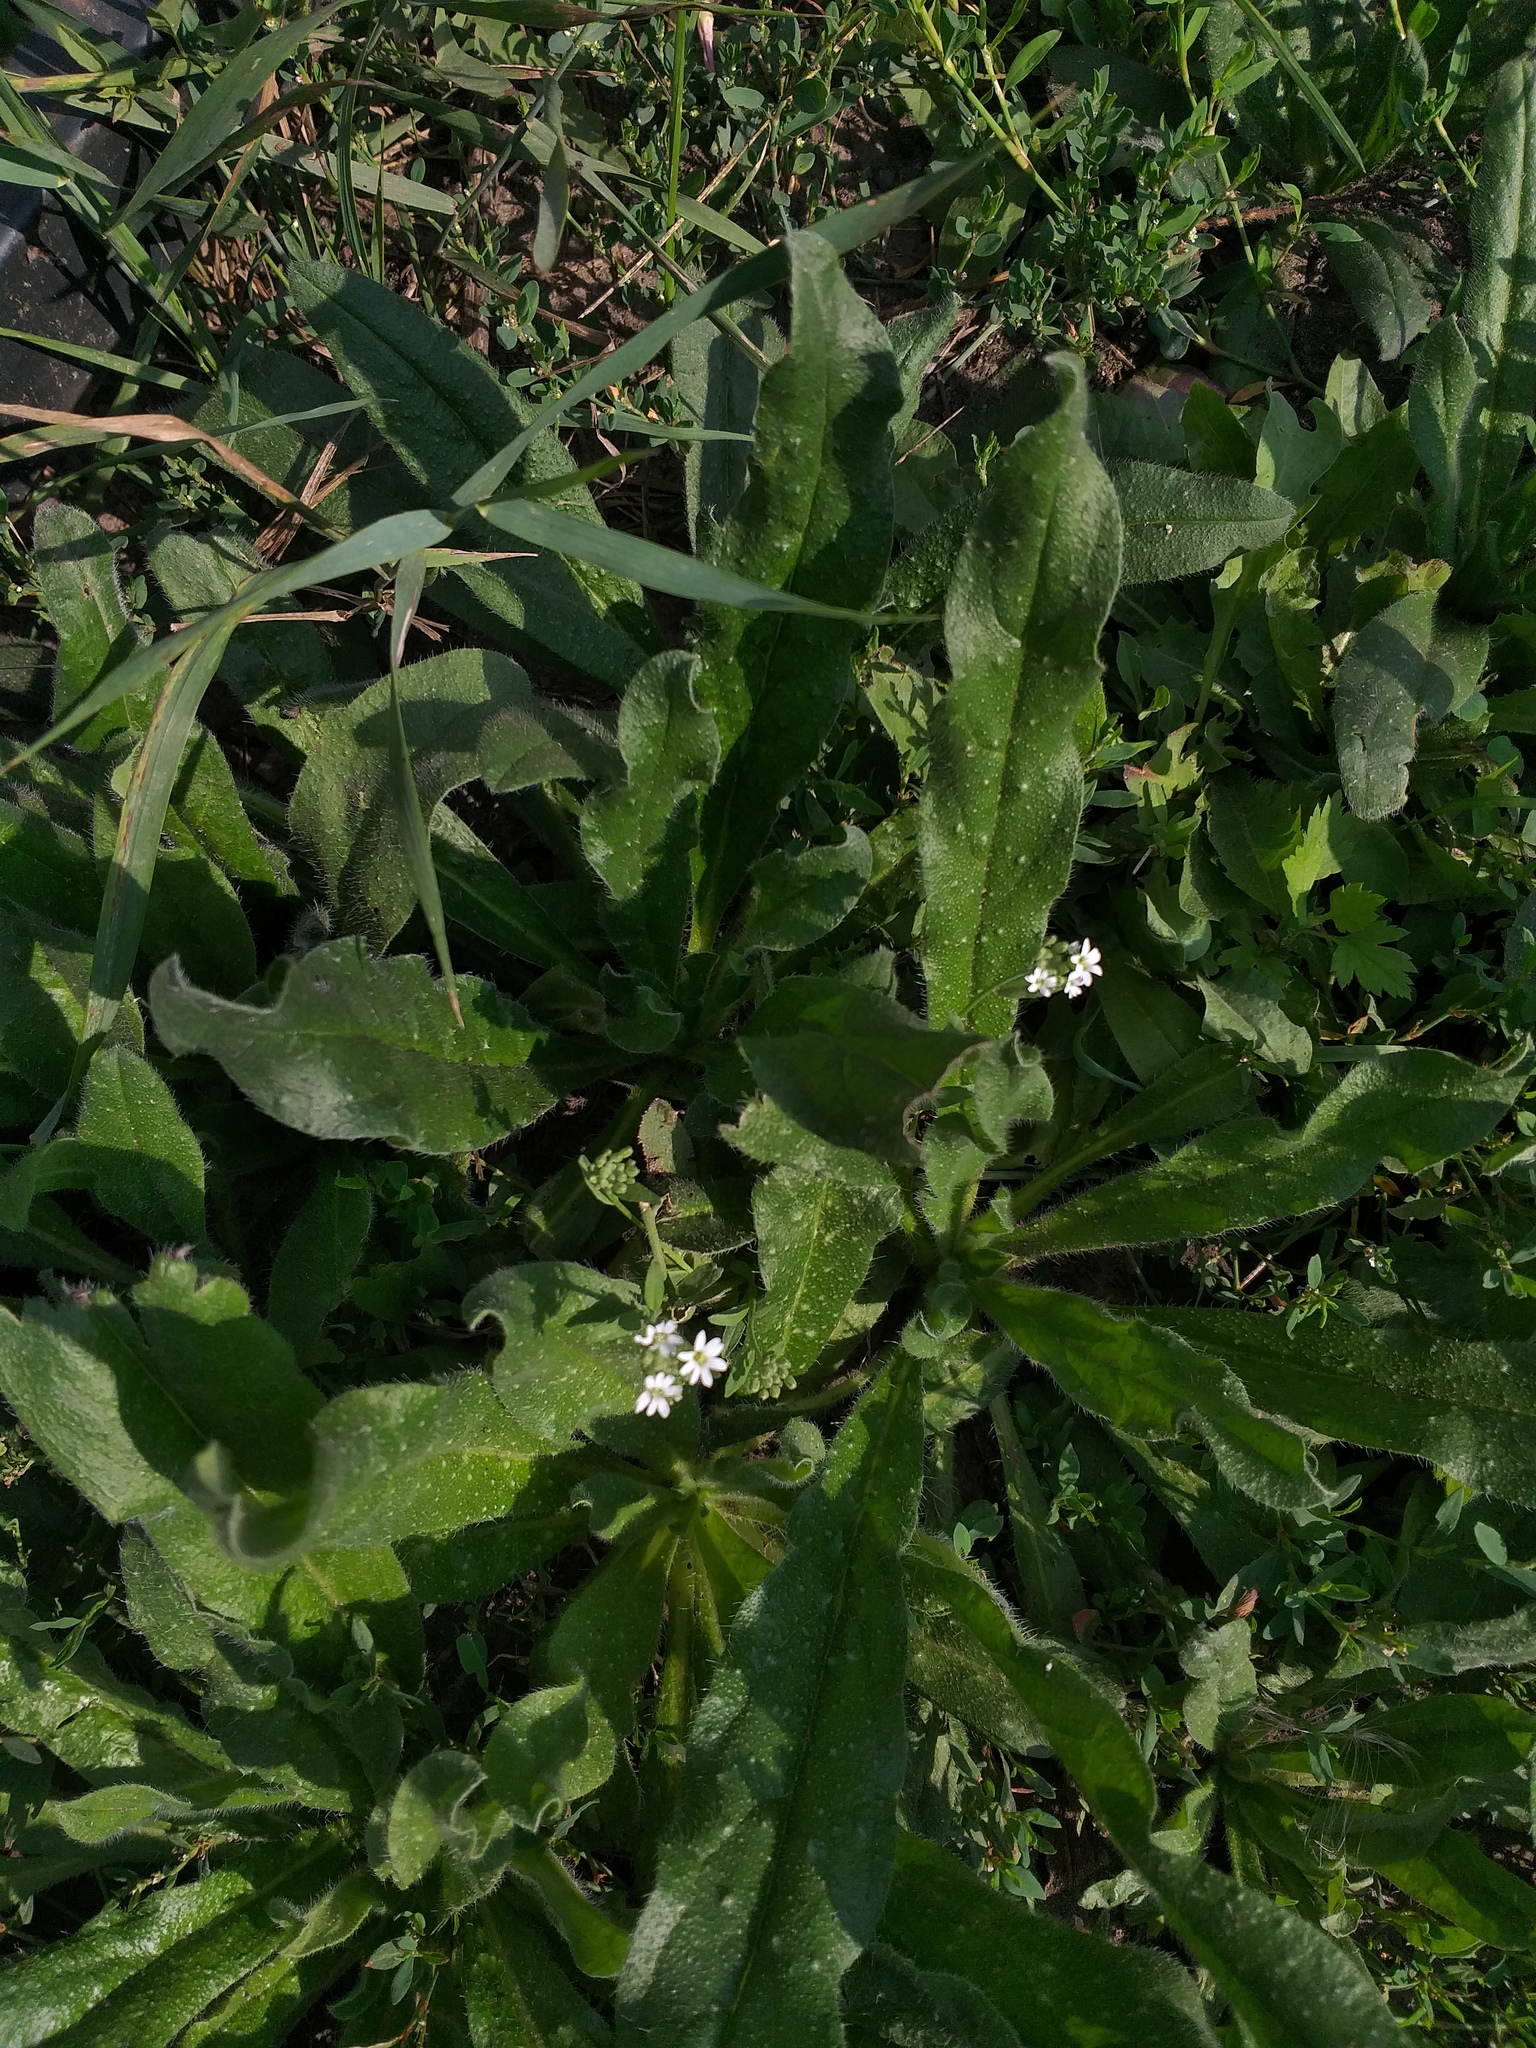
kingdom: Plantae
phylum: Tracheophyta
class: Magnoliopsida
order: Brassicales
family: Brassicaceae
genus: Berteroa
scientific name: Berteroa incana
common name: Hoary alison
